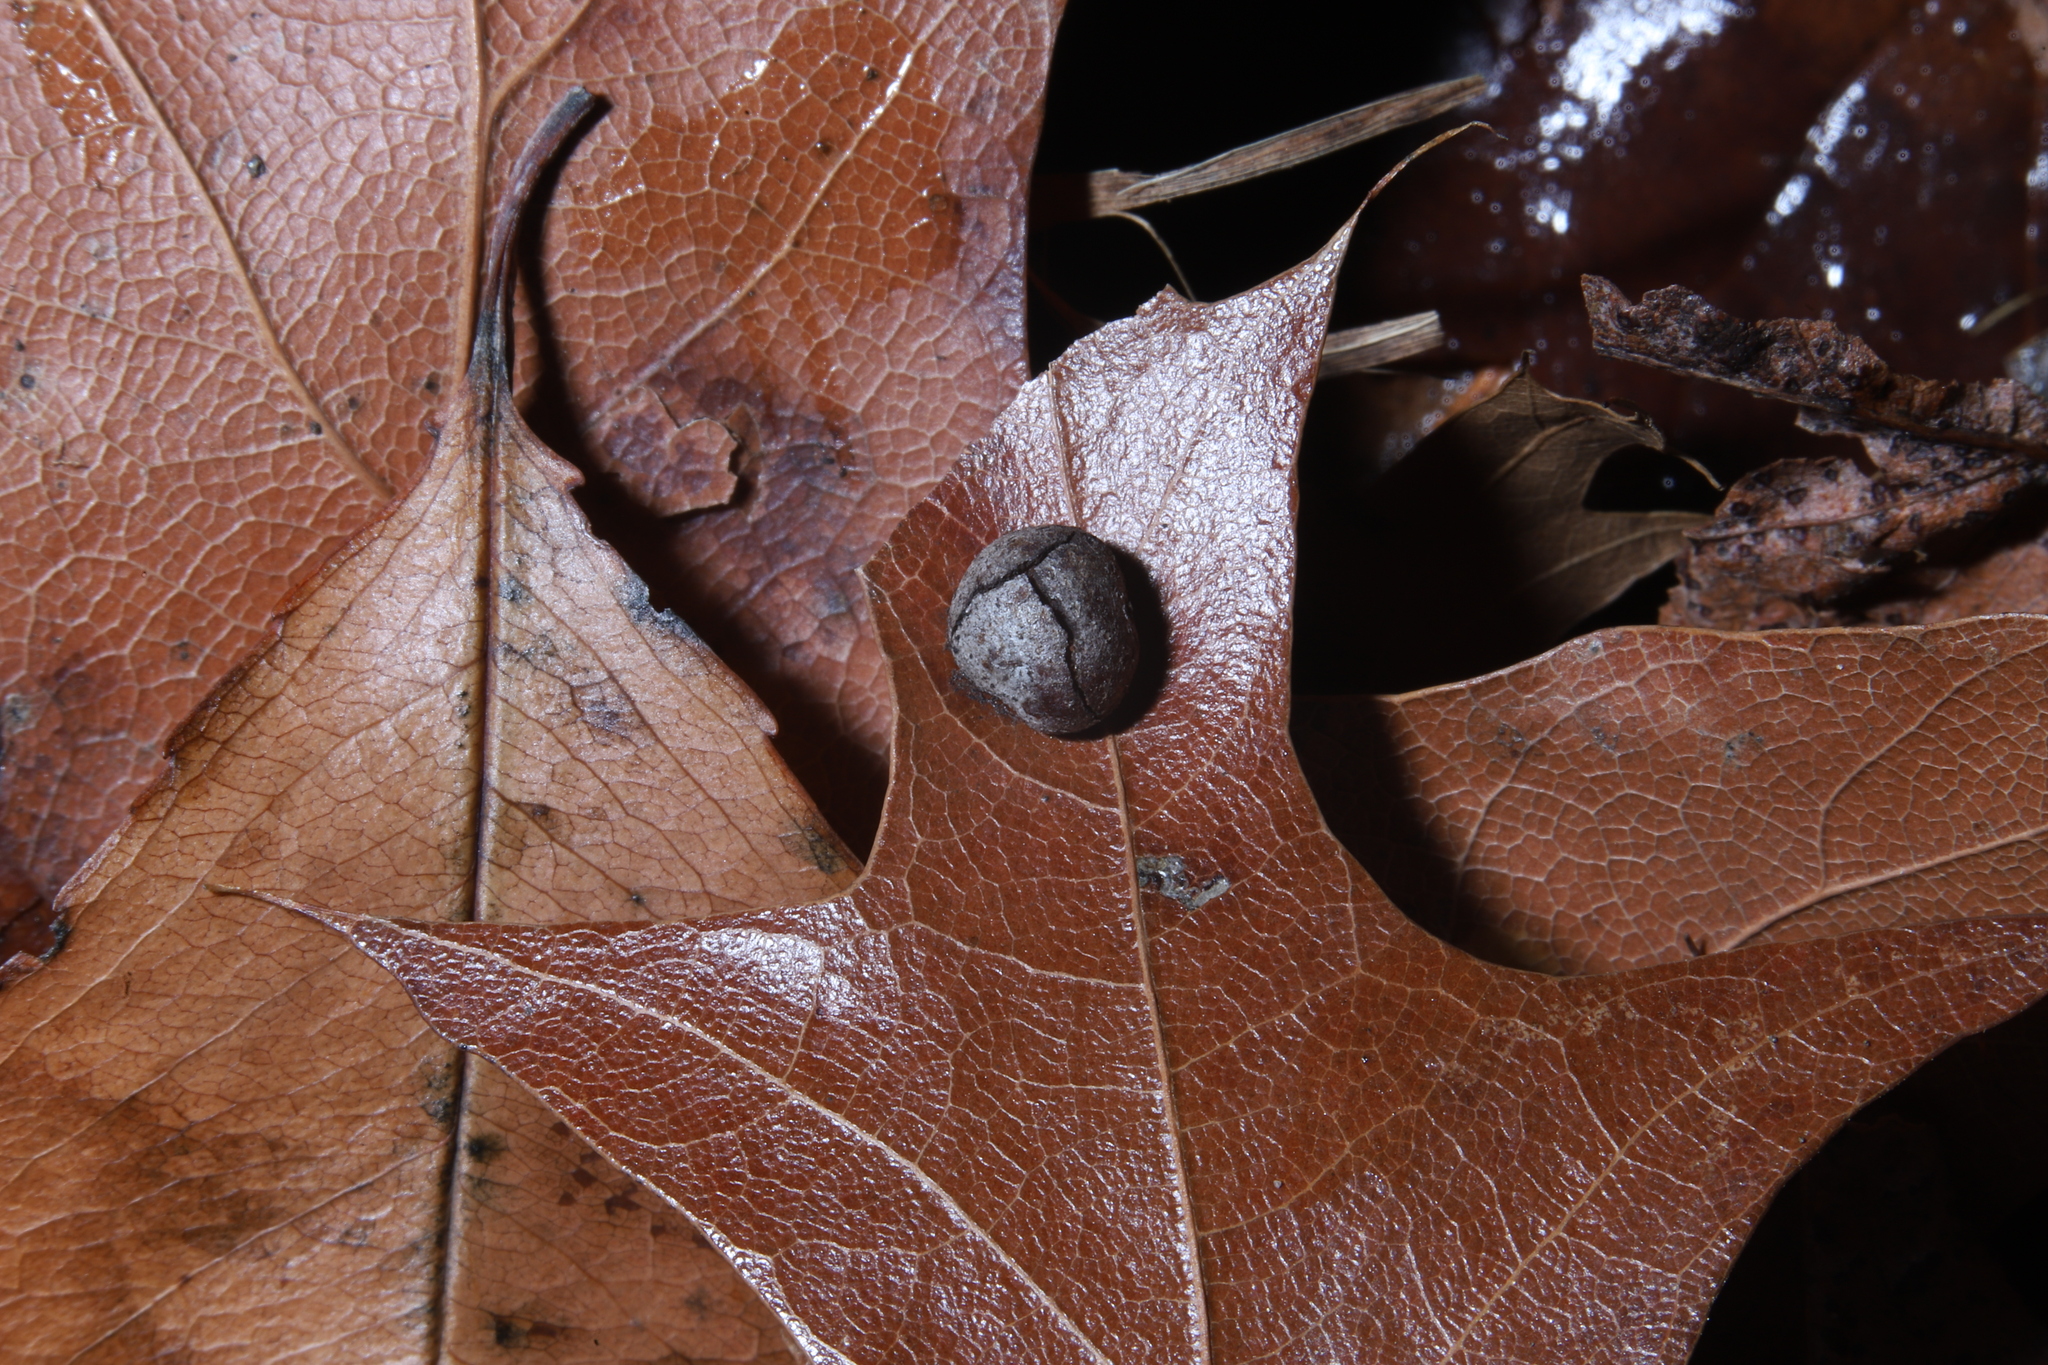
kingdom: Animalia
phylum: Arthropoda
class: Insecta
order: Diptera
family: Cecidomyiidae
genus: Polystepha
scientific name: Polystepha pilulae
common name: Oak leaf gall midge
